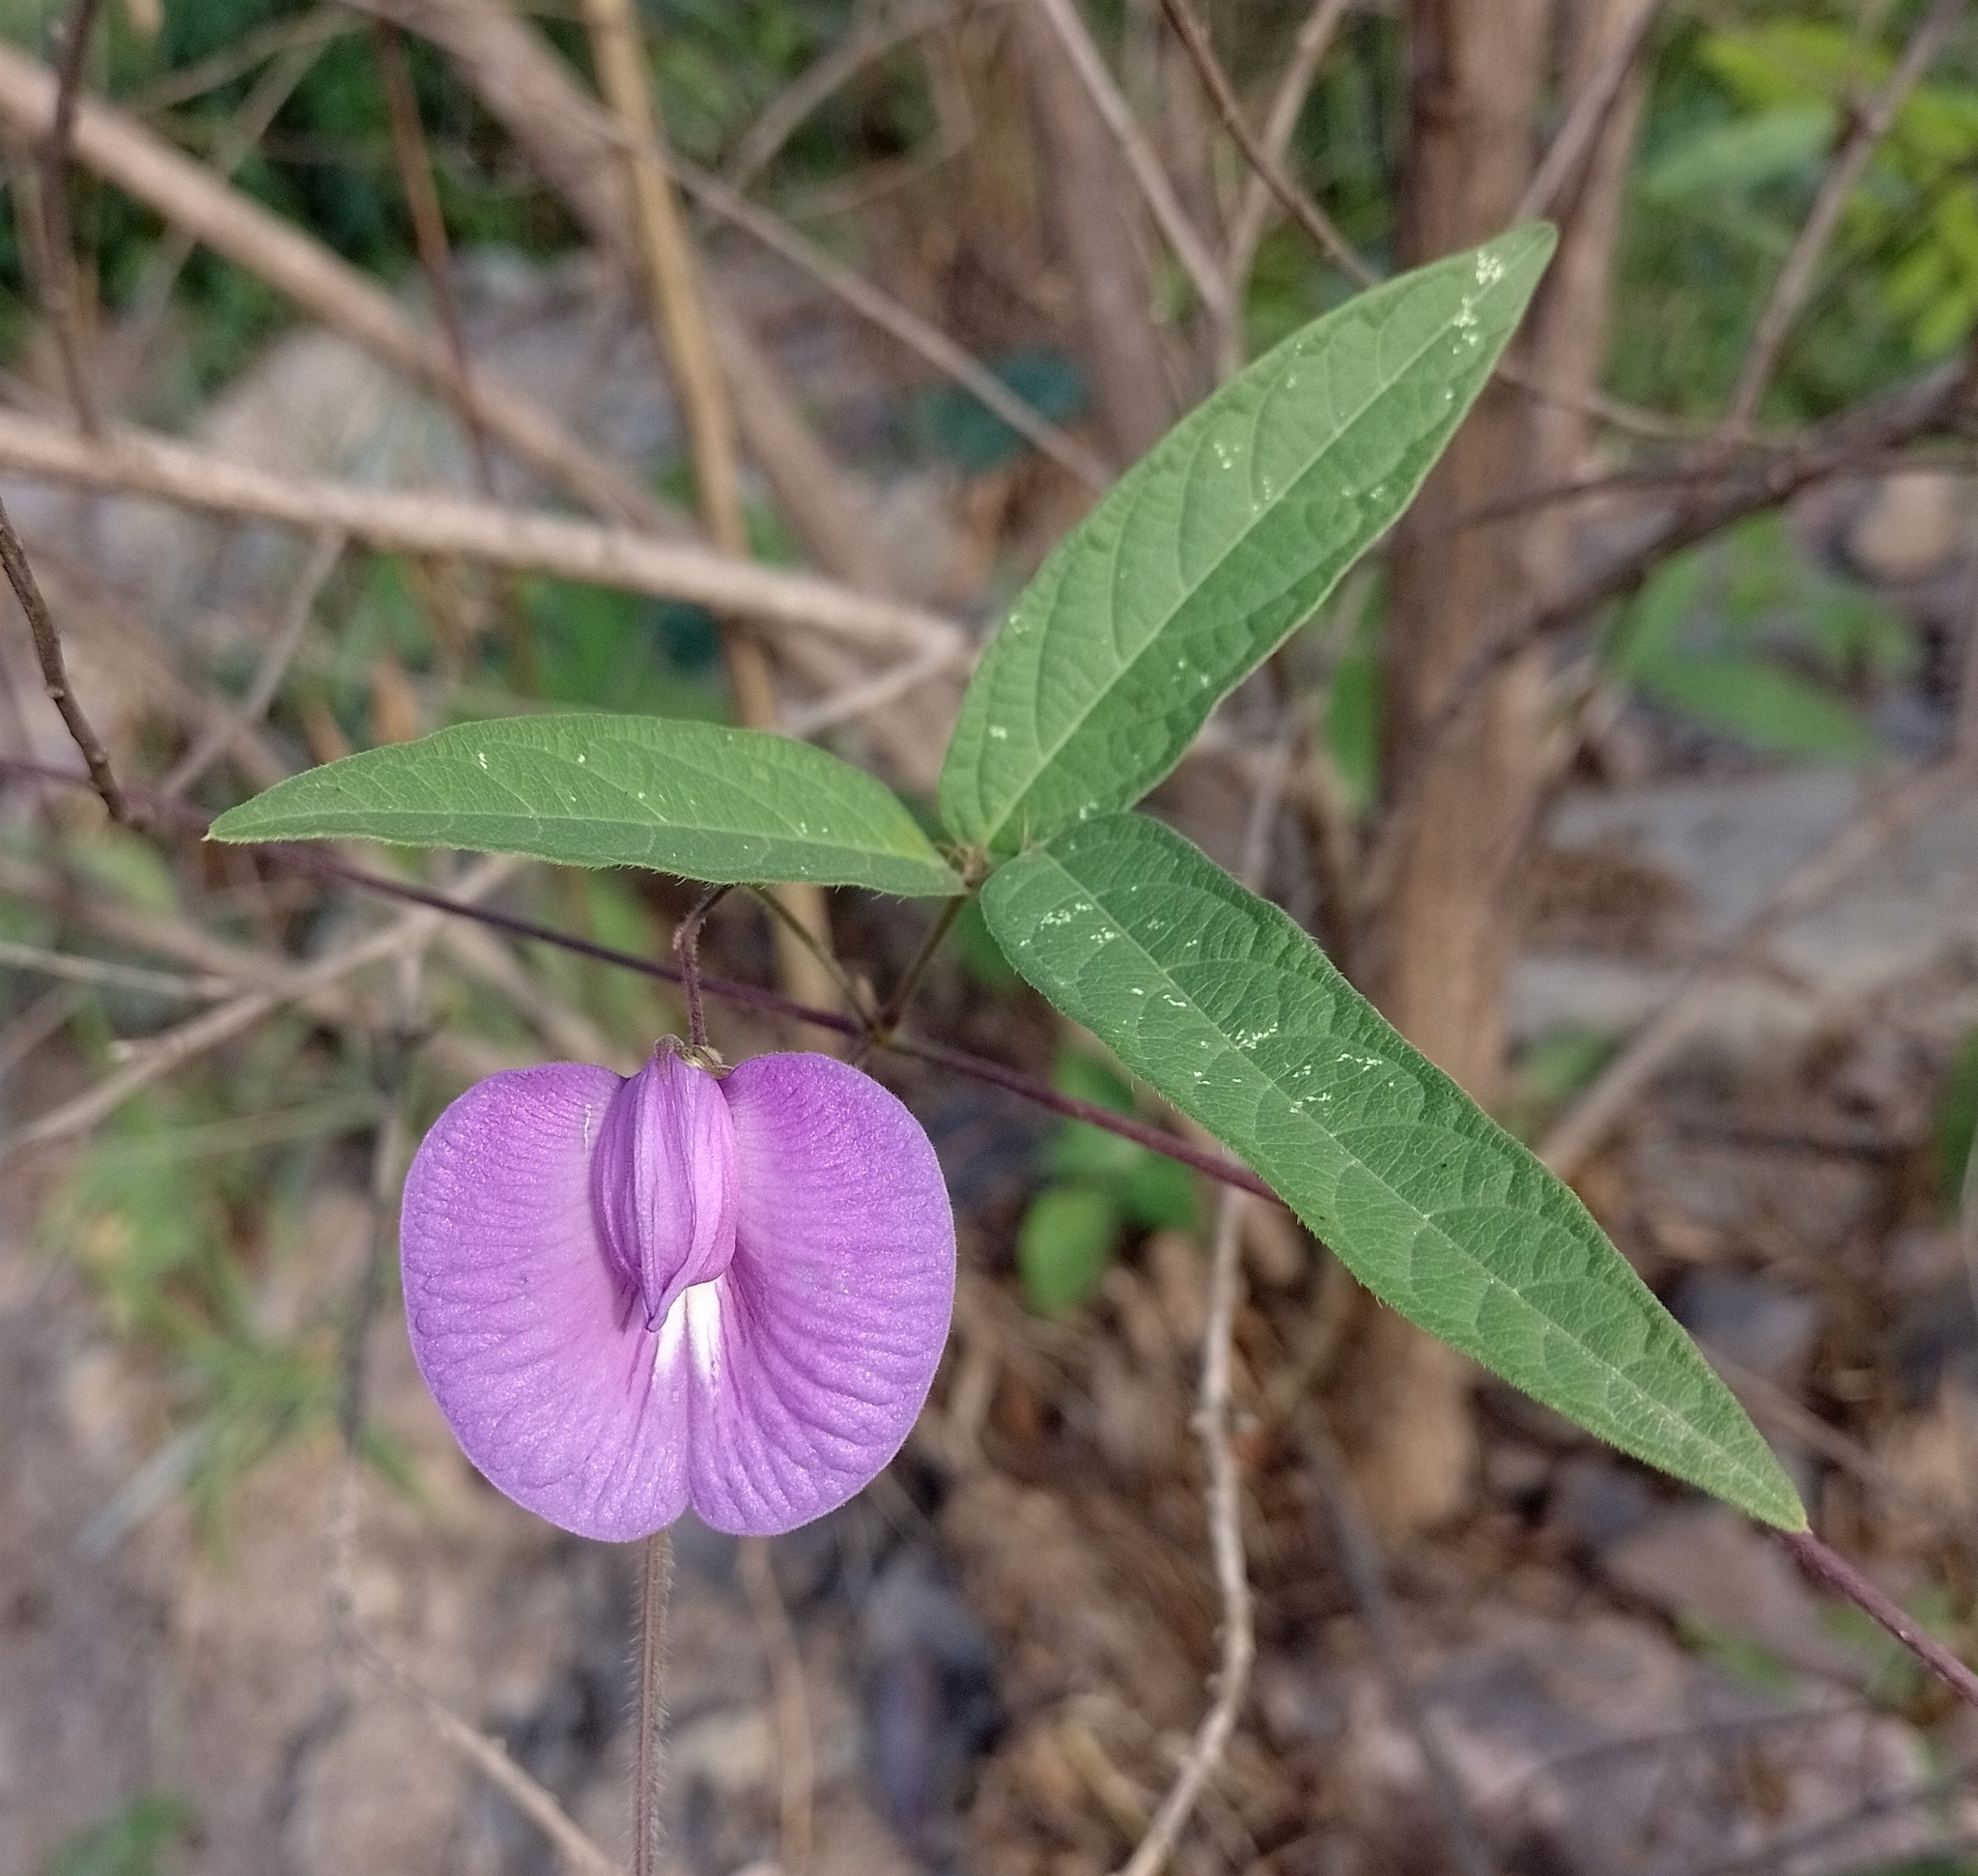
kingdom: Plantae
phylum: Tracheophyta
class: Magnoliopsida
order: Fabales
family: Fabaceae
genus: Centrosema
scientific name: Centrosema virginianum
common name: Butterfly-pea
